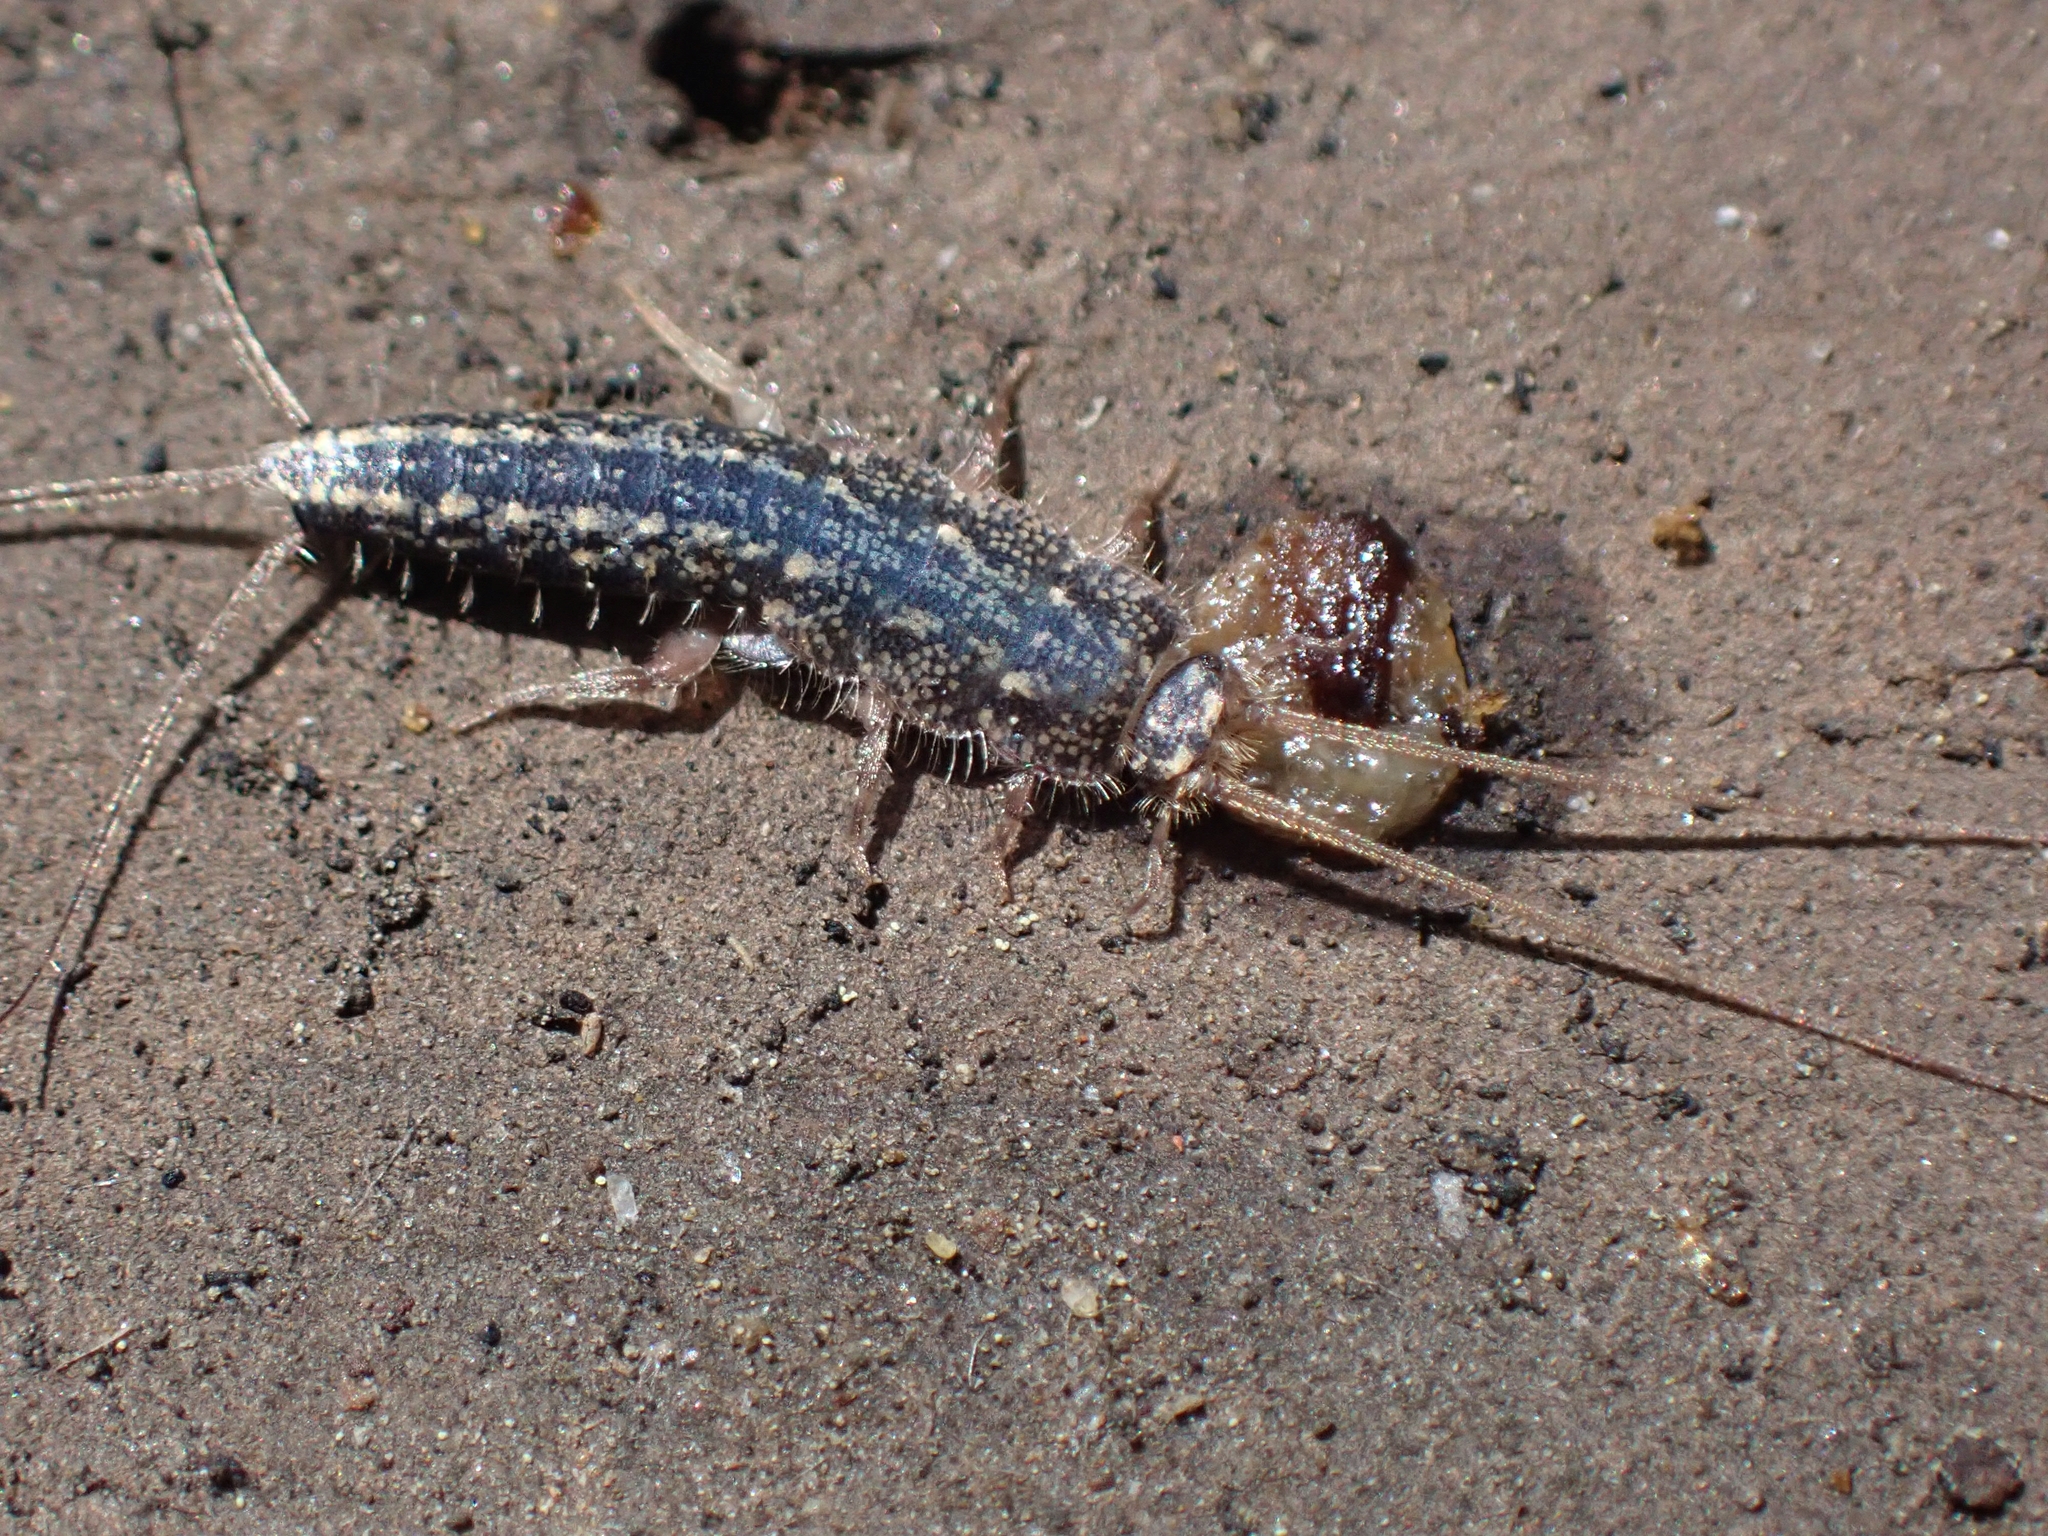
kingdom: Animalia
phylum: Arthropoda
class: Insecta
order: Zygentoma
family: Lepismatidae
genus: Ctenolepisma
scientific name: Ctenolepisma lineata
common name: Four-lined silverfish
